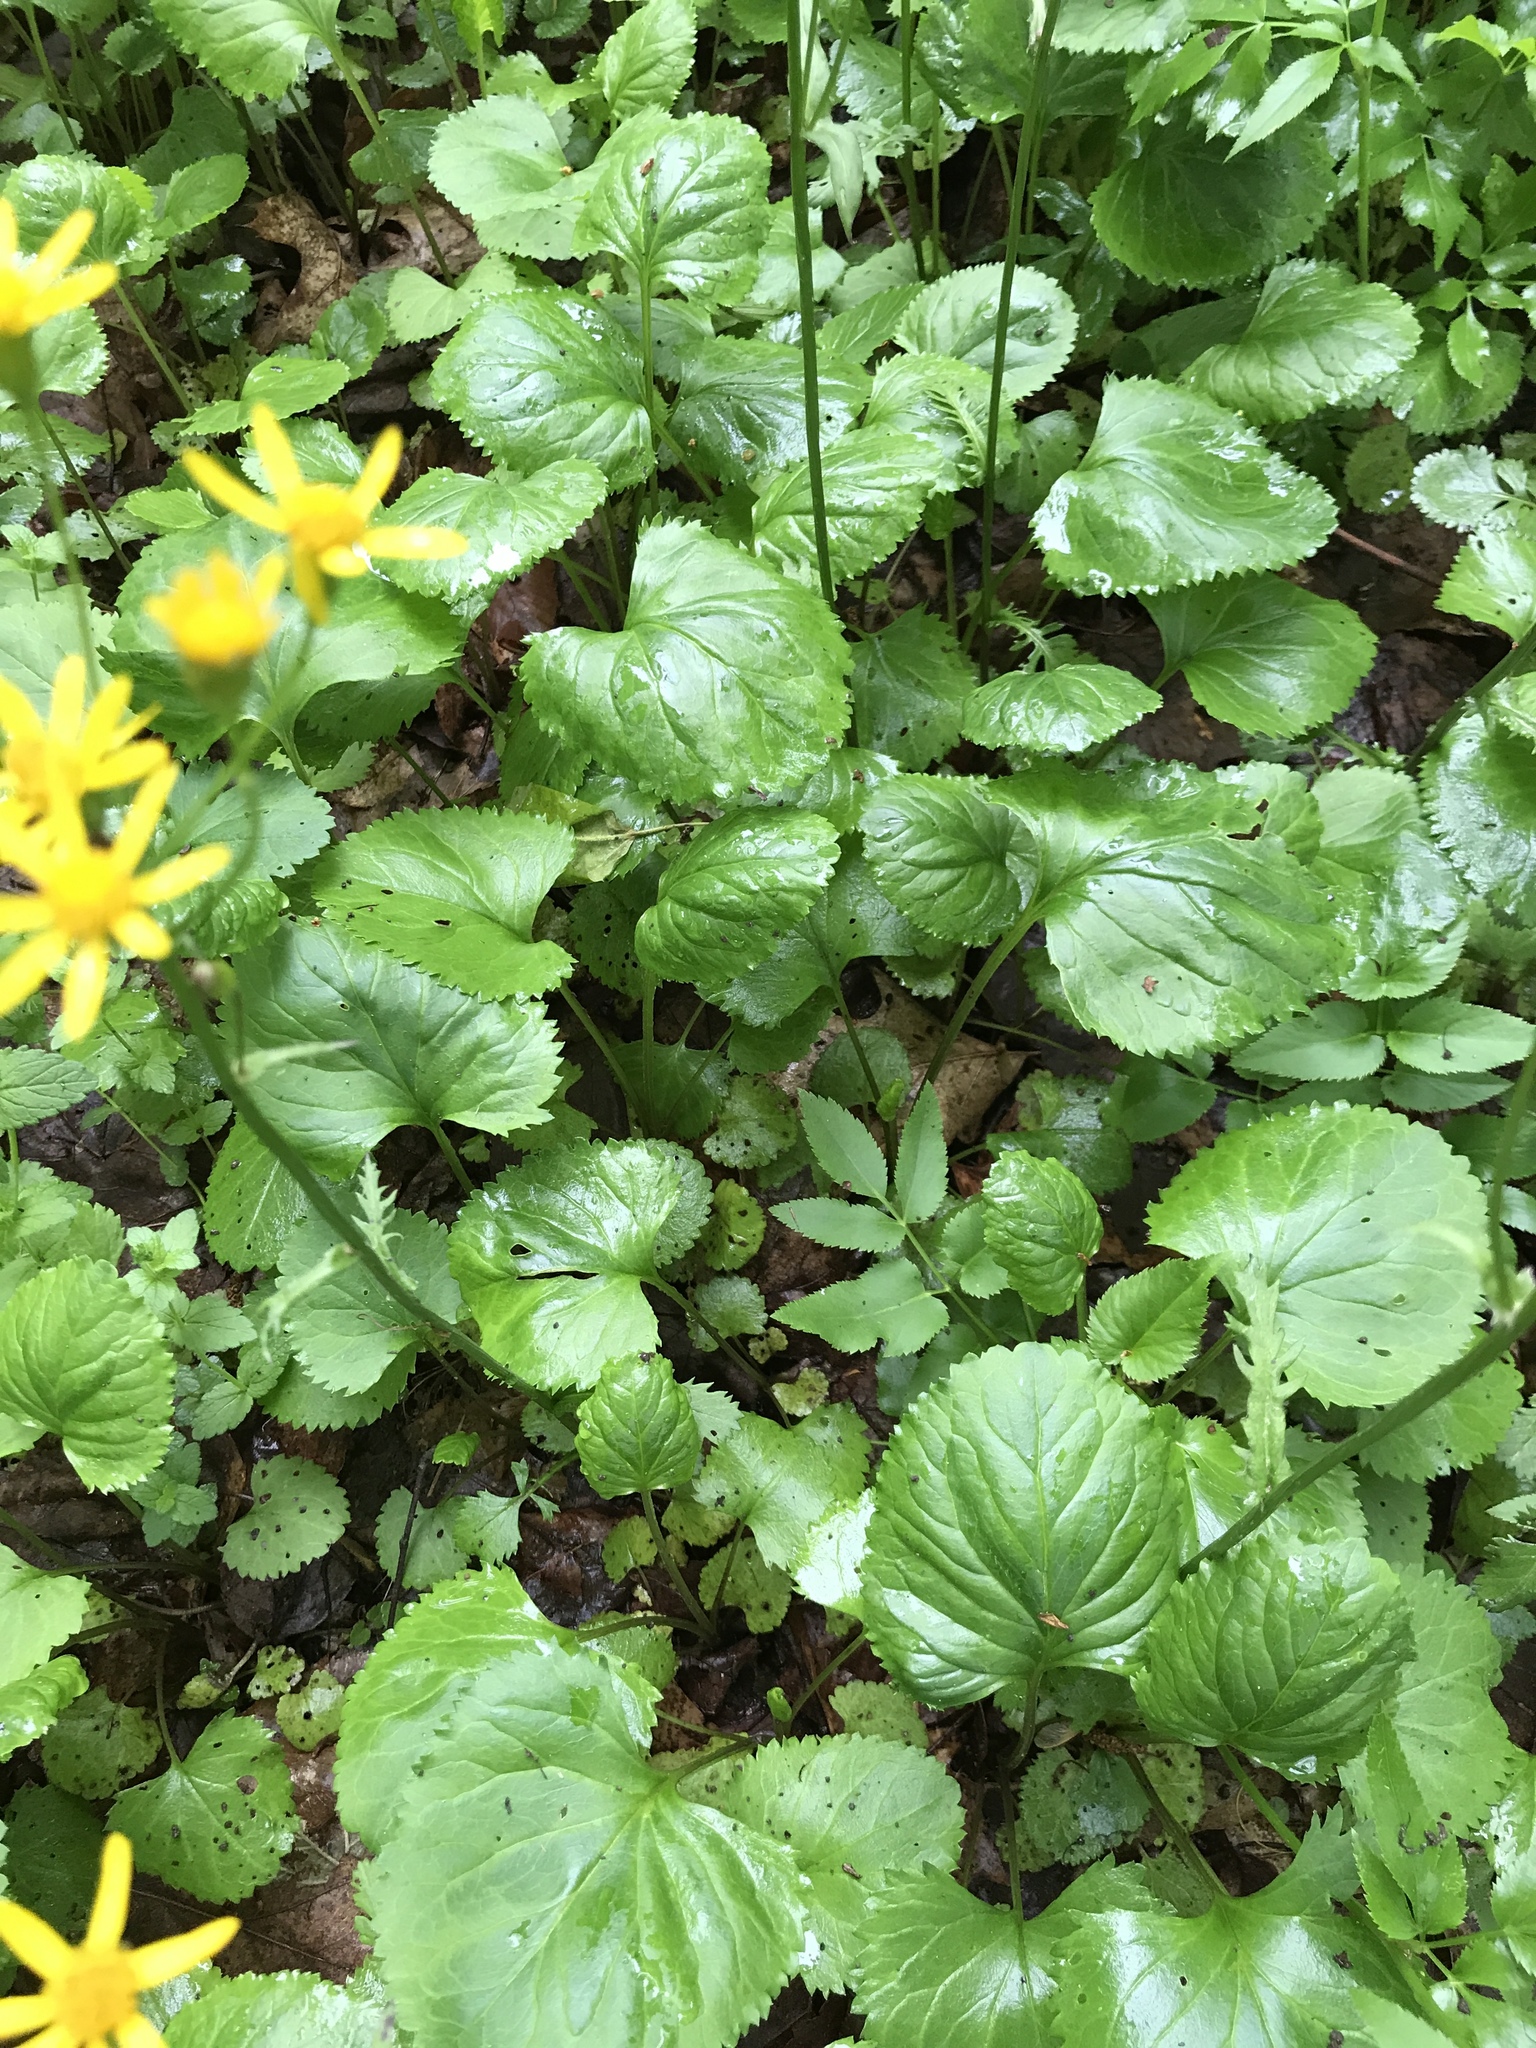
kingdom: Plantae
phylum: Tracheophyta
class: Magnoliopsida
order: Asterales
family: Asteraceae
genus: Packera
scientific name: Packera aurea
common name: Golden groundsel
